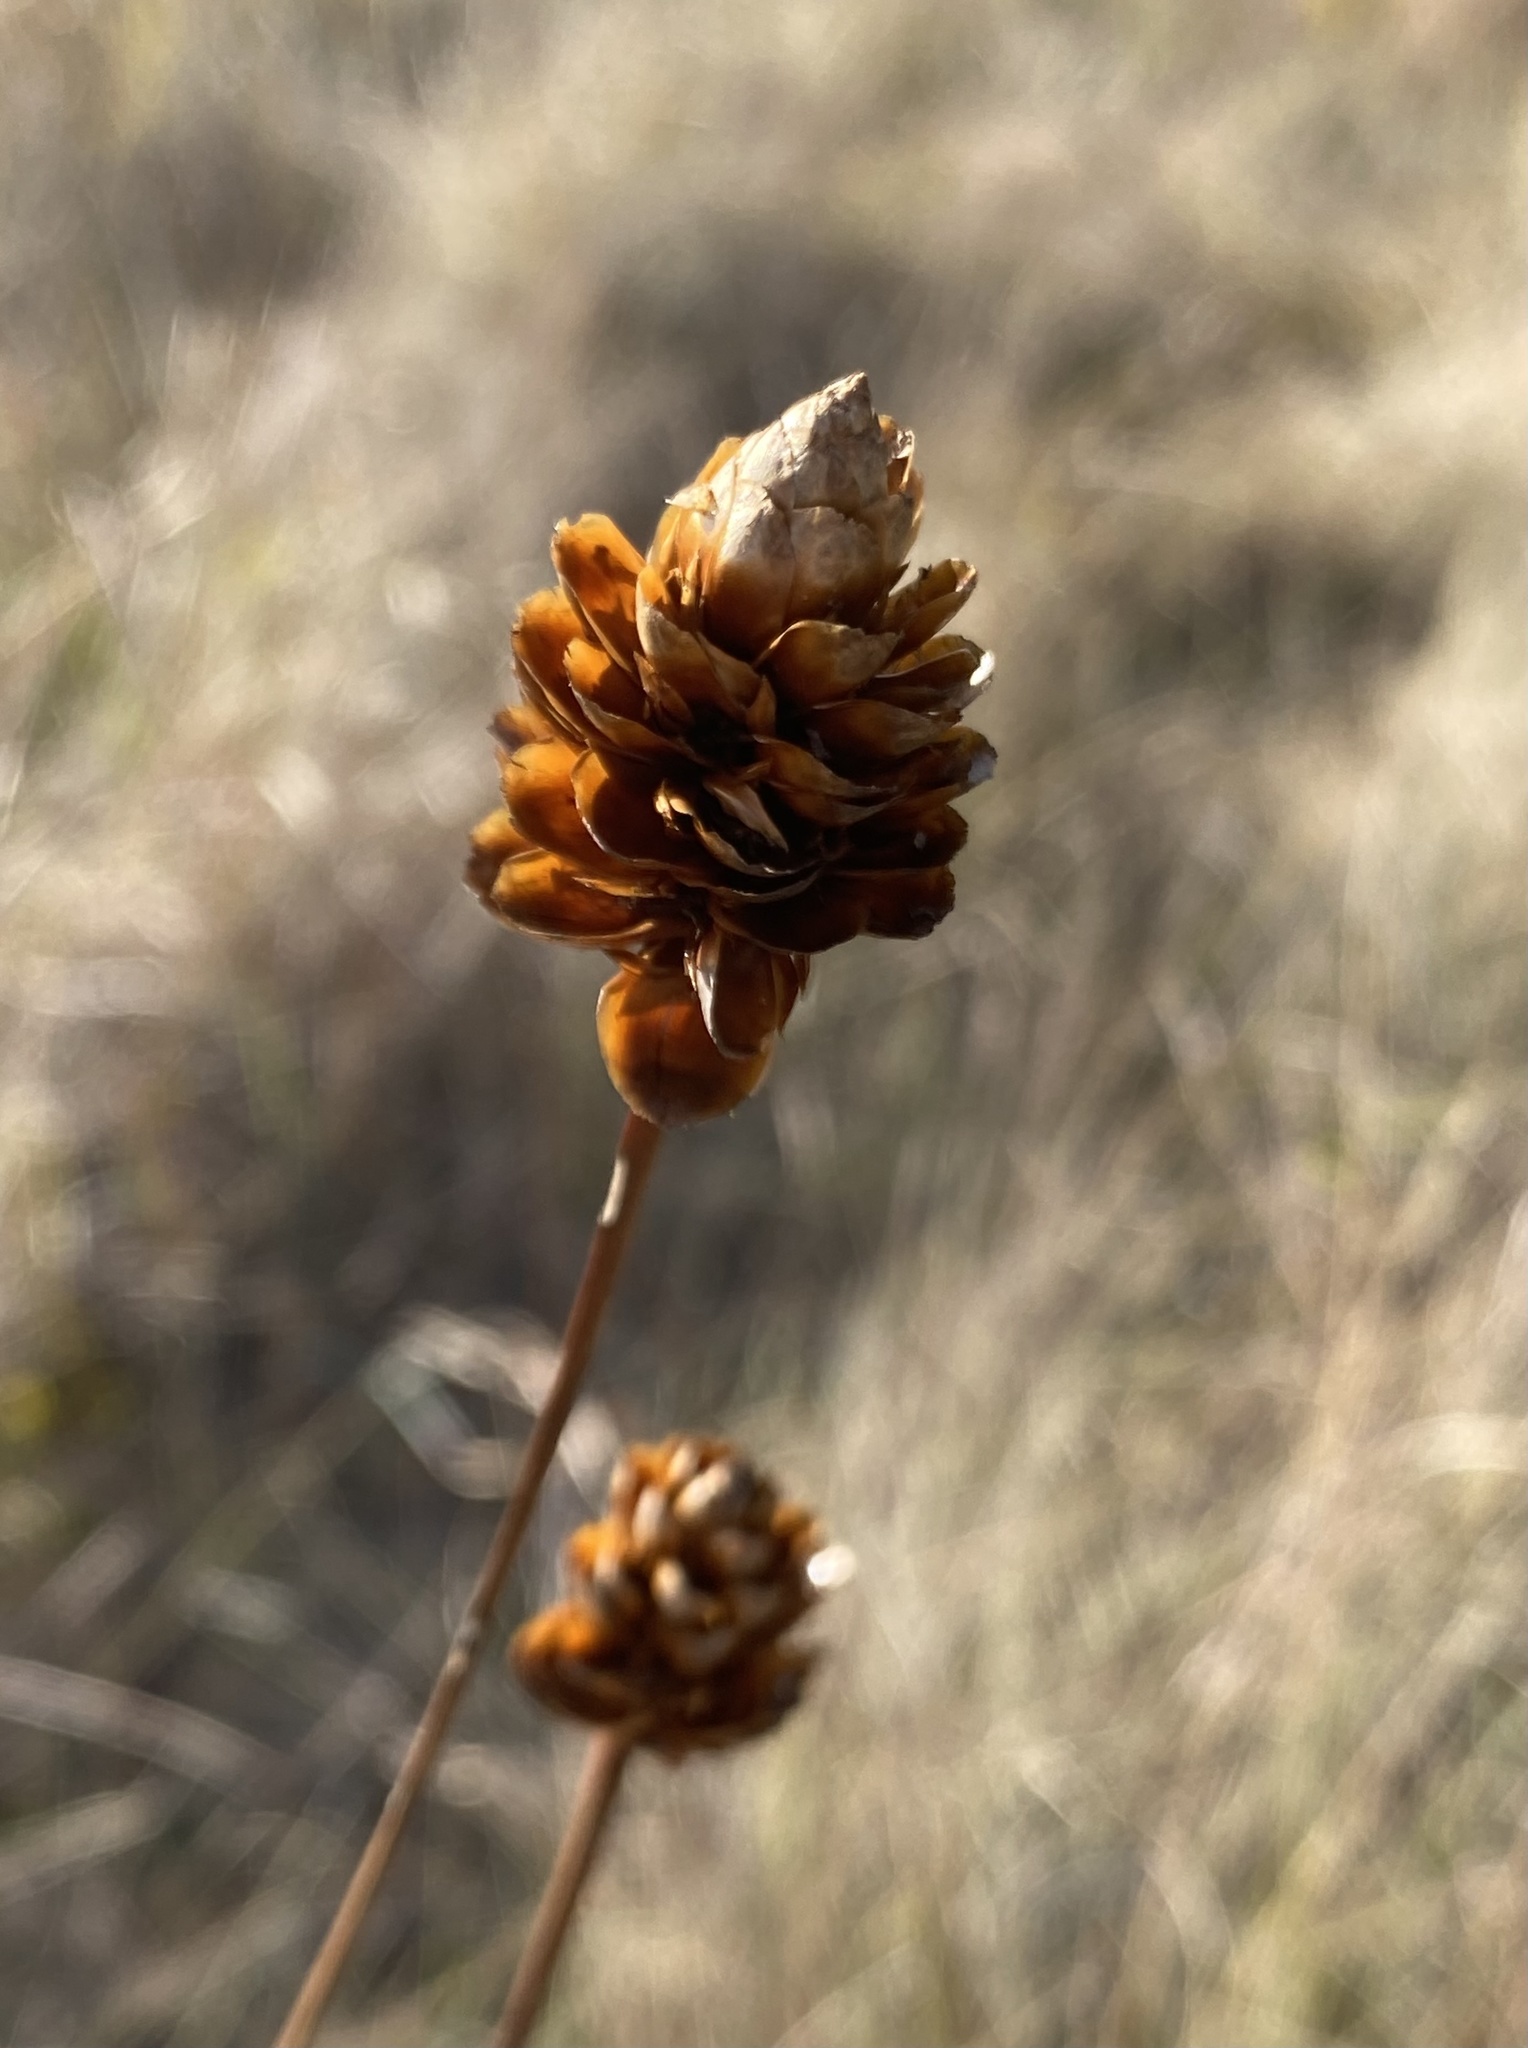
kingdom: Plantae
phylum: Tracheophyta
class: Liliopsida
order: Poales
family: Xyridaceae
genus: Xyris
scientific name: Xyris ambigua
